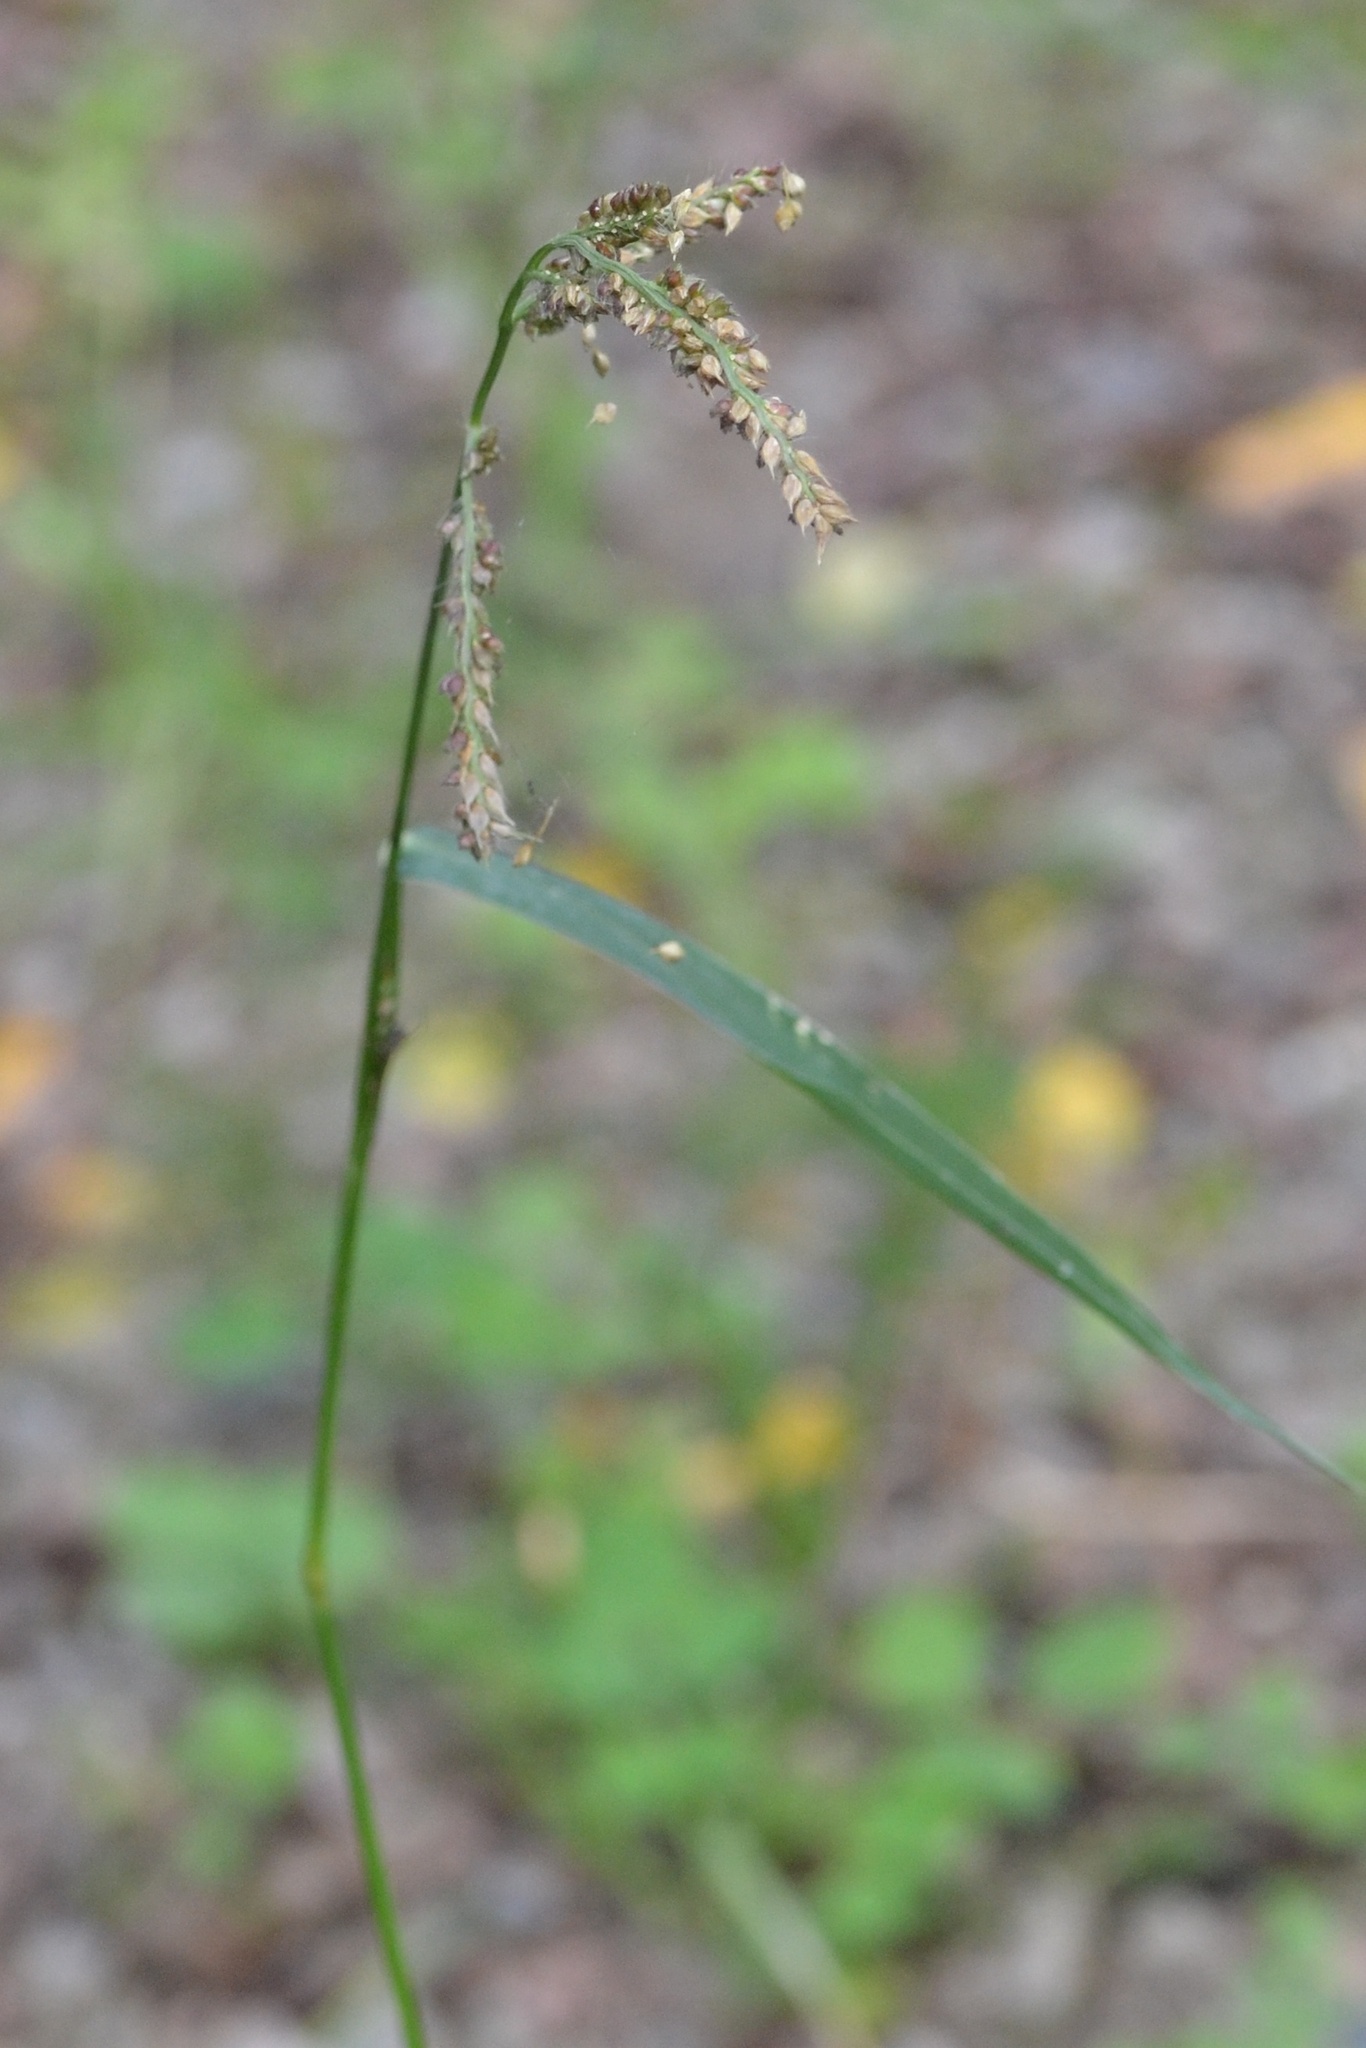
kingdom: Plantae
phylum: Tracheophyta
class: Liliopsida
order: Poales
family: Poaceae
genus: Echinochloa
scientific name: Echinochloa crus-galli
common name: Cockspur
